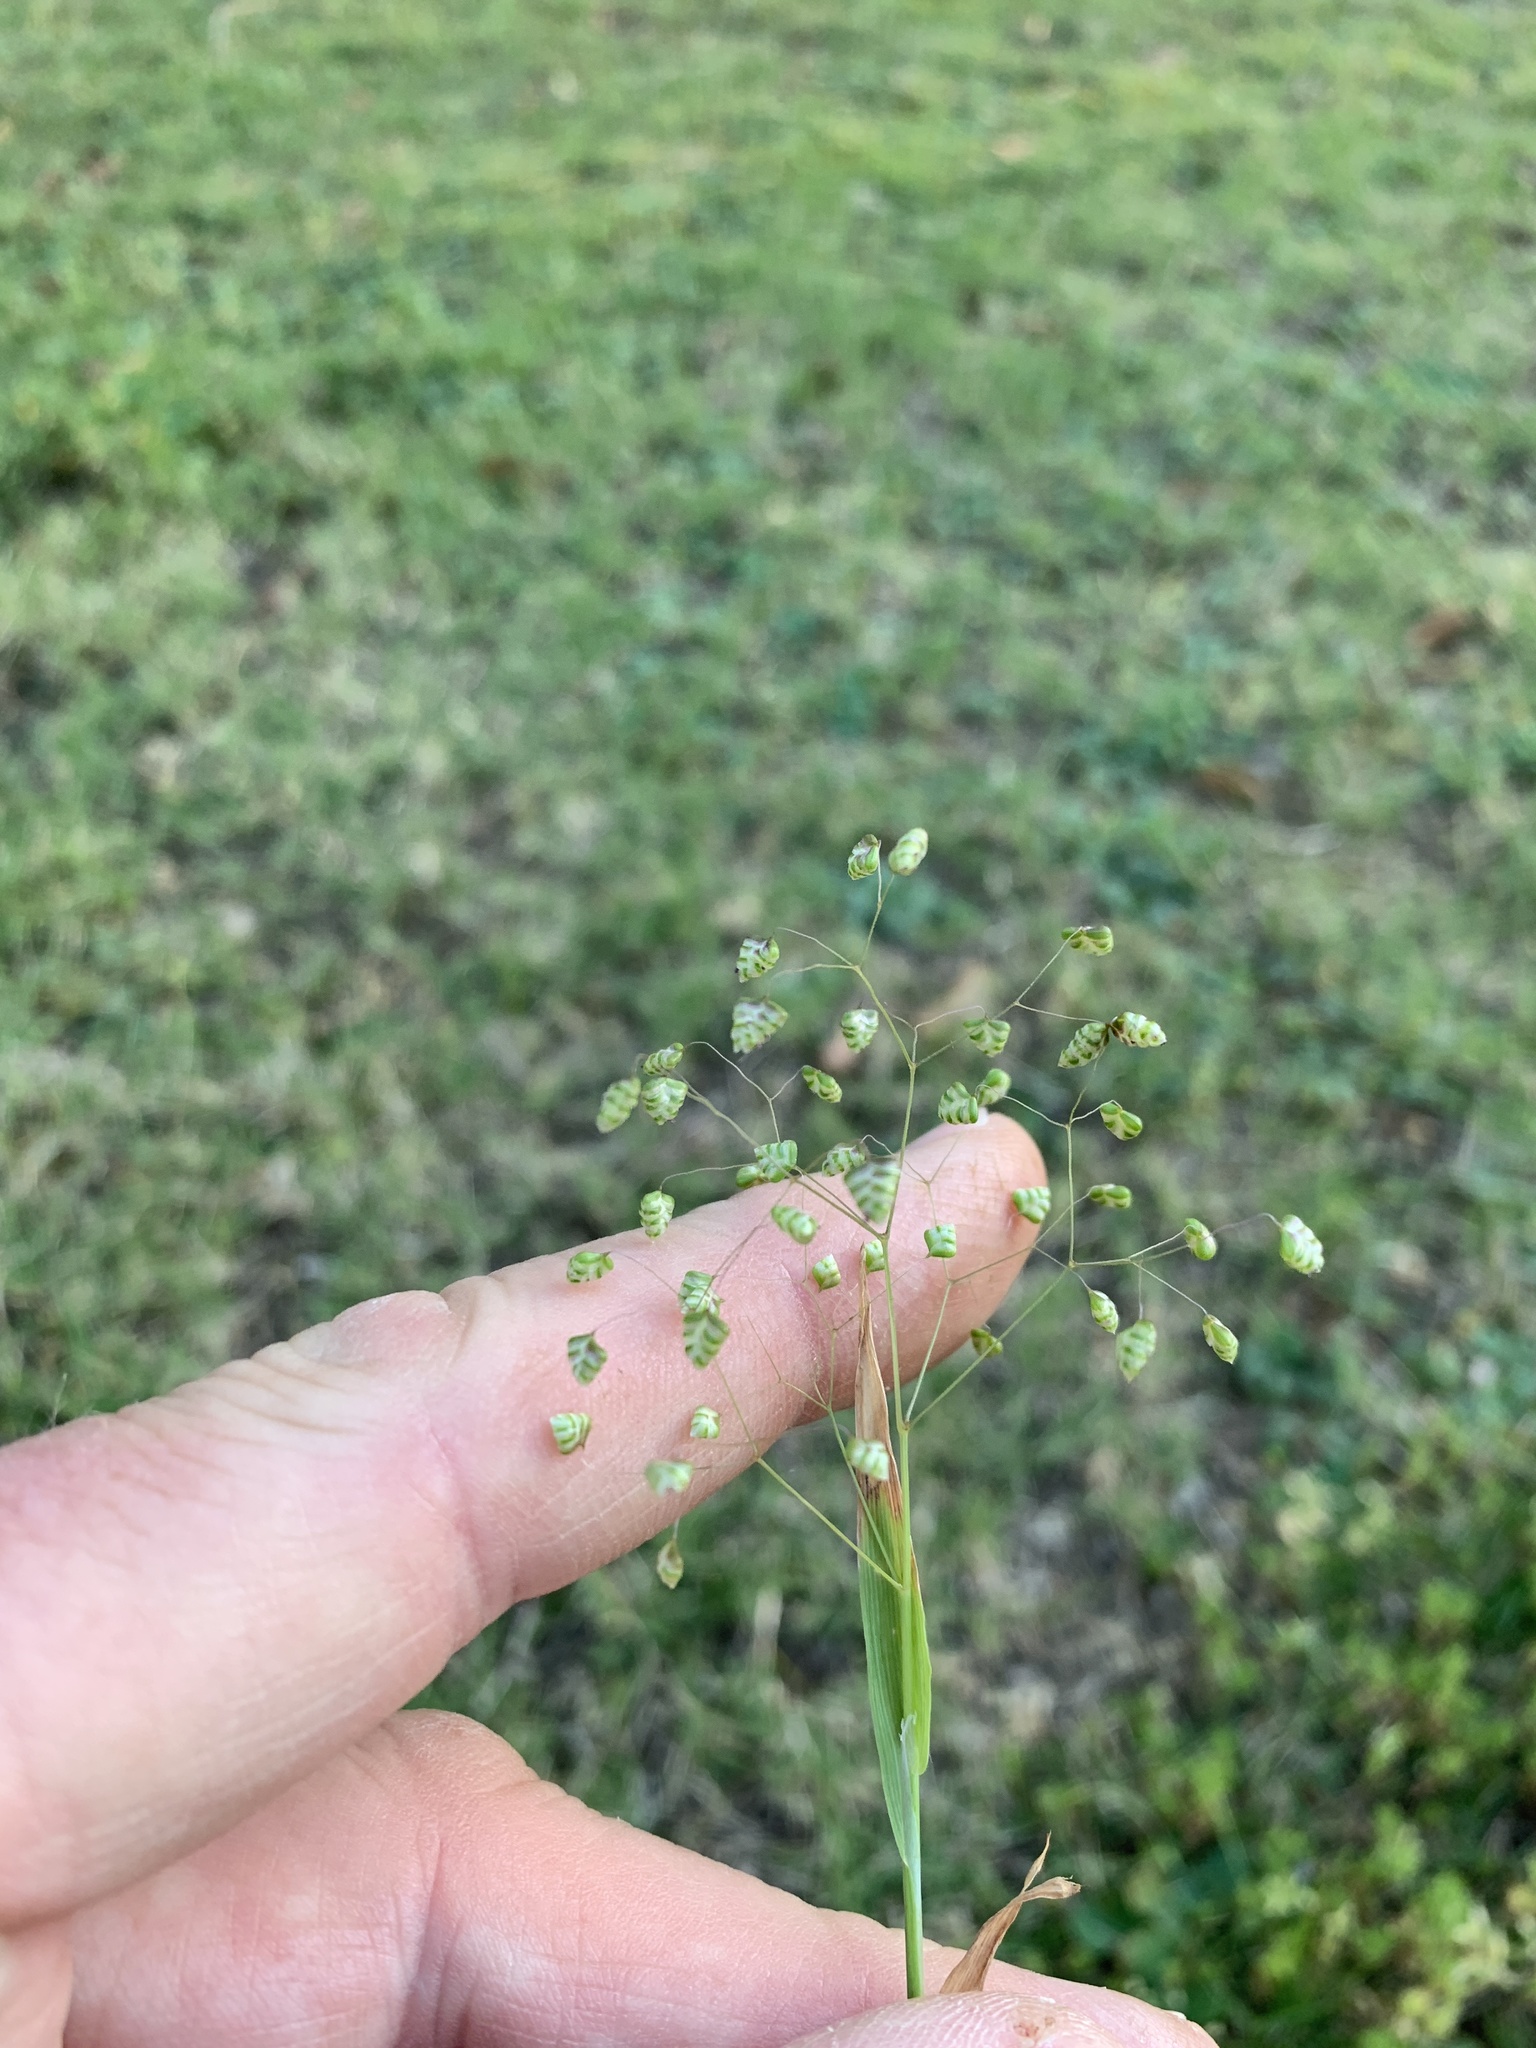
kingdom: Plantae
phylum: Tracheophyta
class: Liliopsida
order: Poales
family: Poaceae
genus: Briza
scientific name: Briza minor
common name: Lesser quaking-grass
